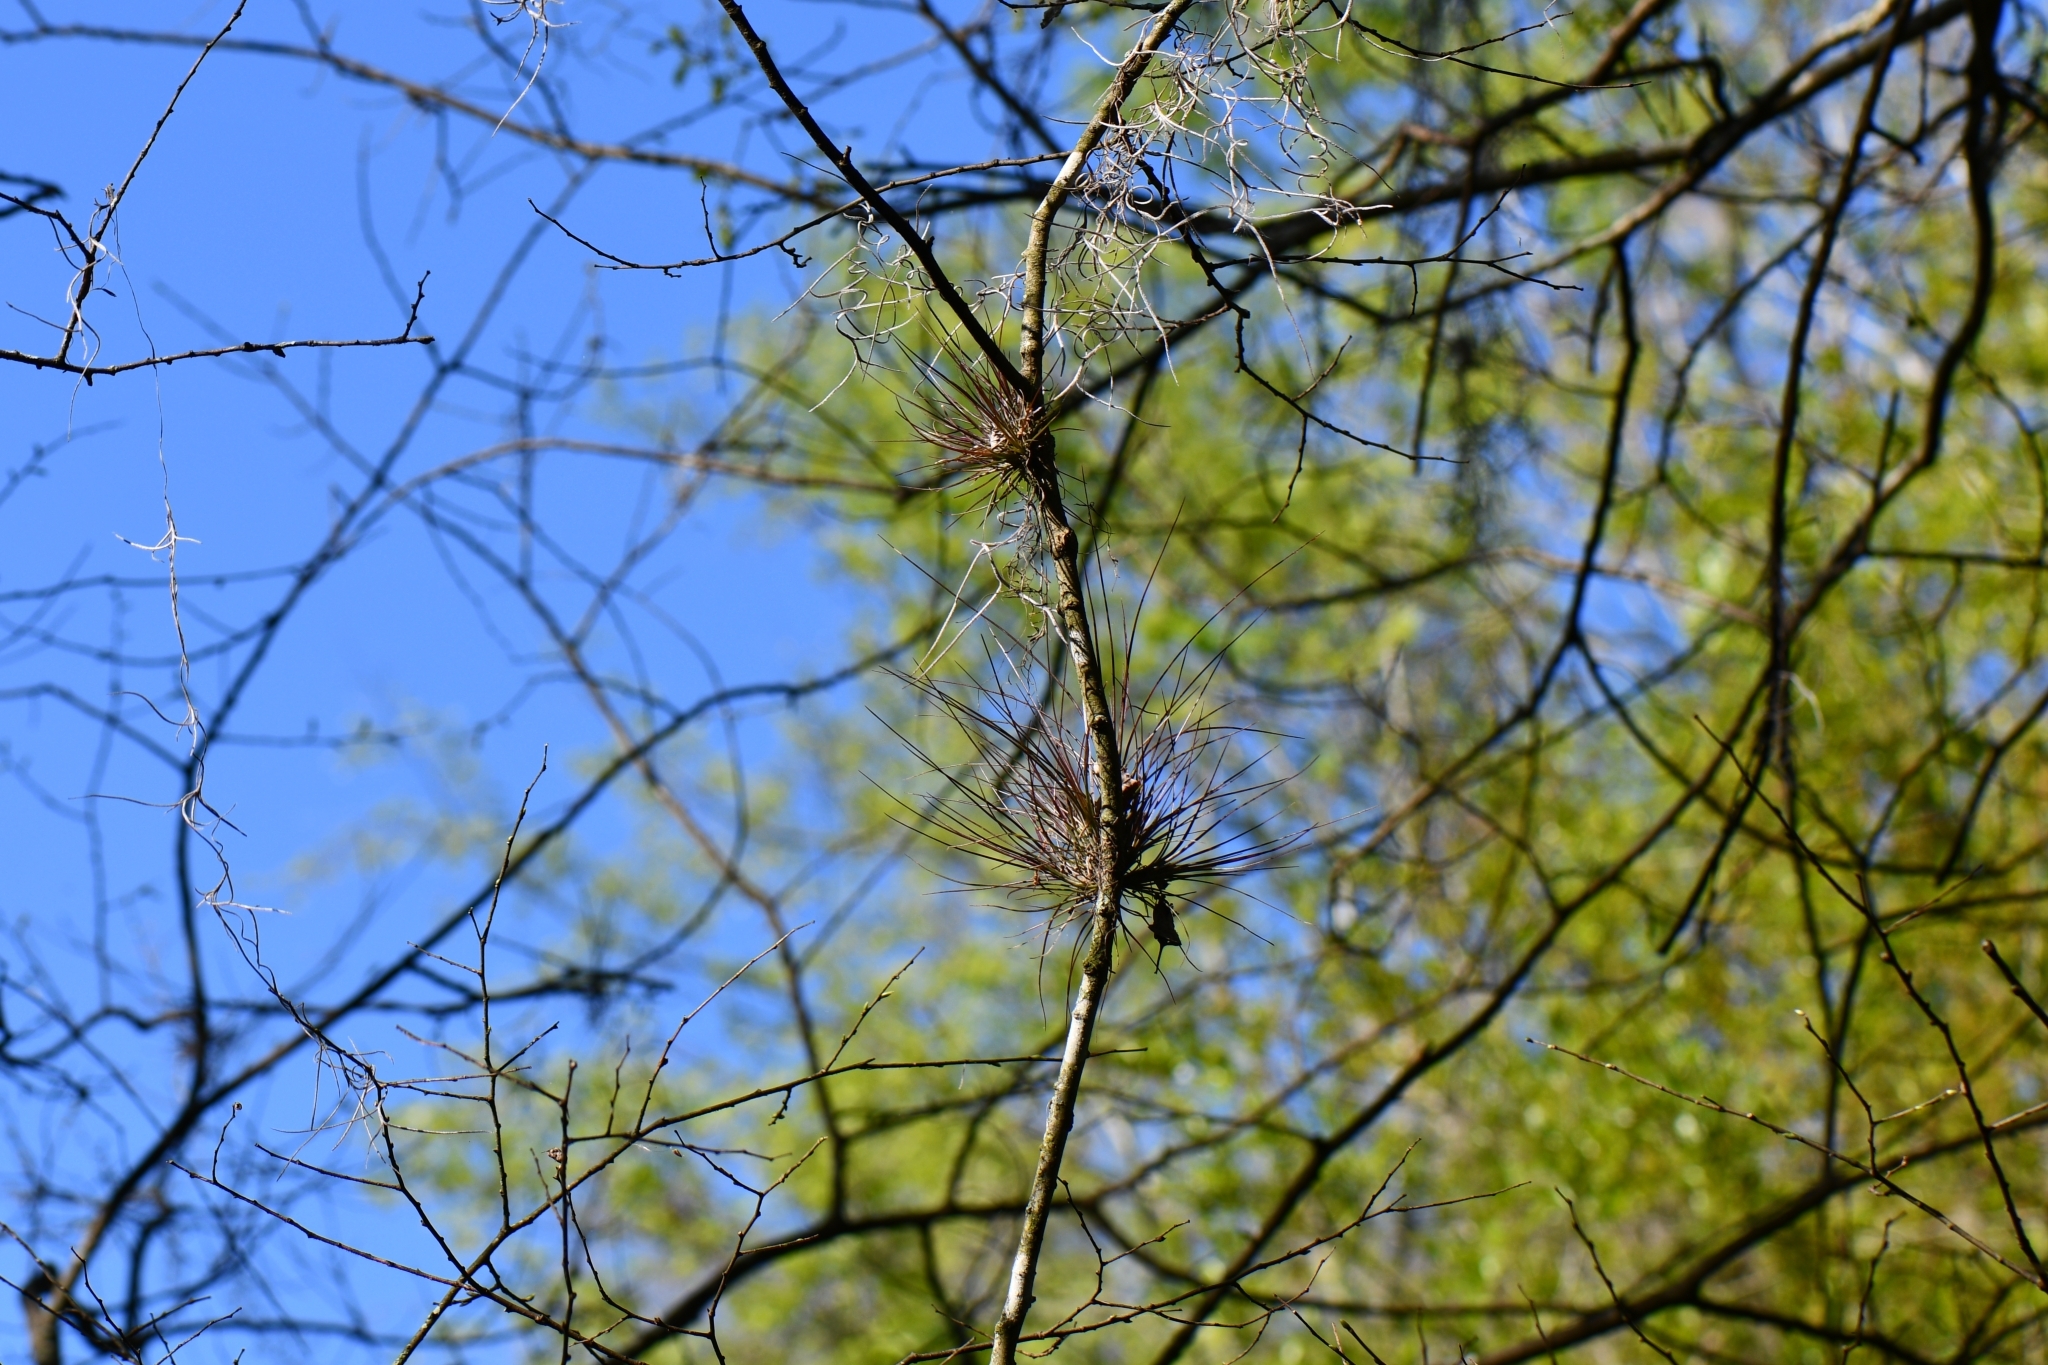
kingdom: Plantae
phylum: Tracheophyta
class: Liliopsida
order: Poales
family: Bromeliaceae
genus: Tillandsia
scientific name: Tillandsia setacea
